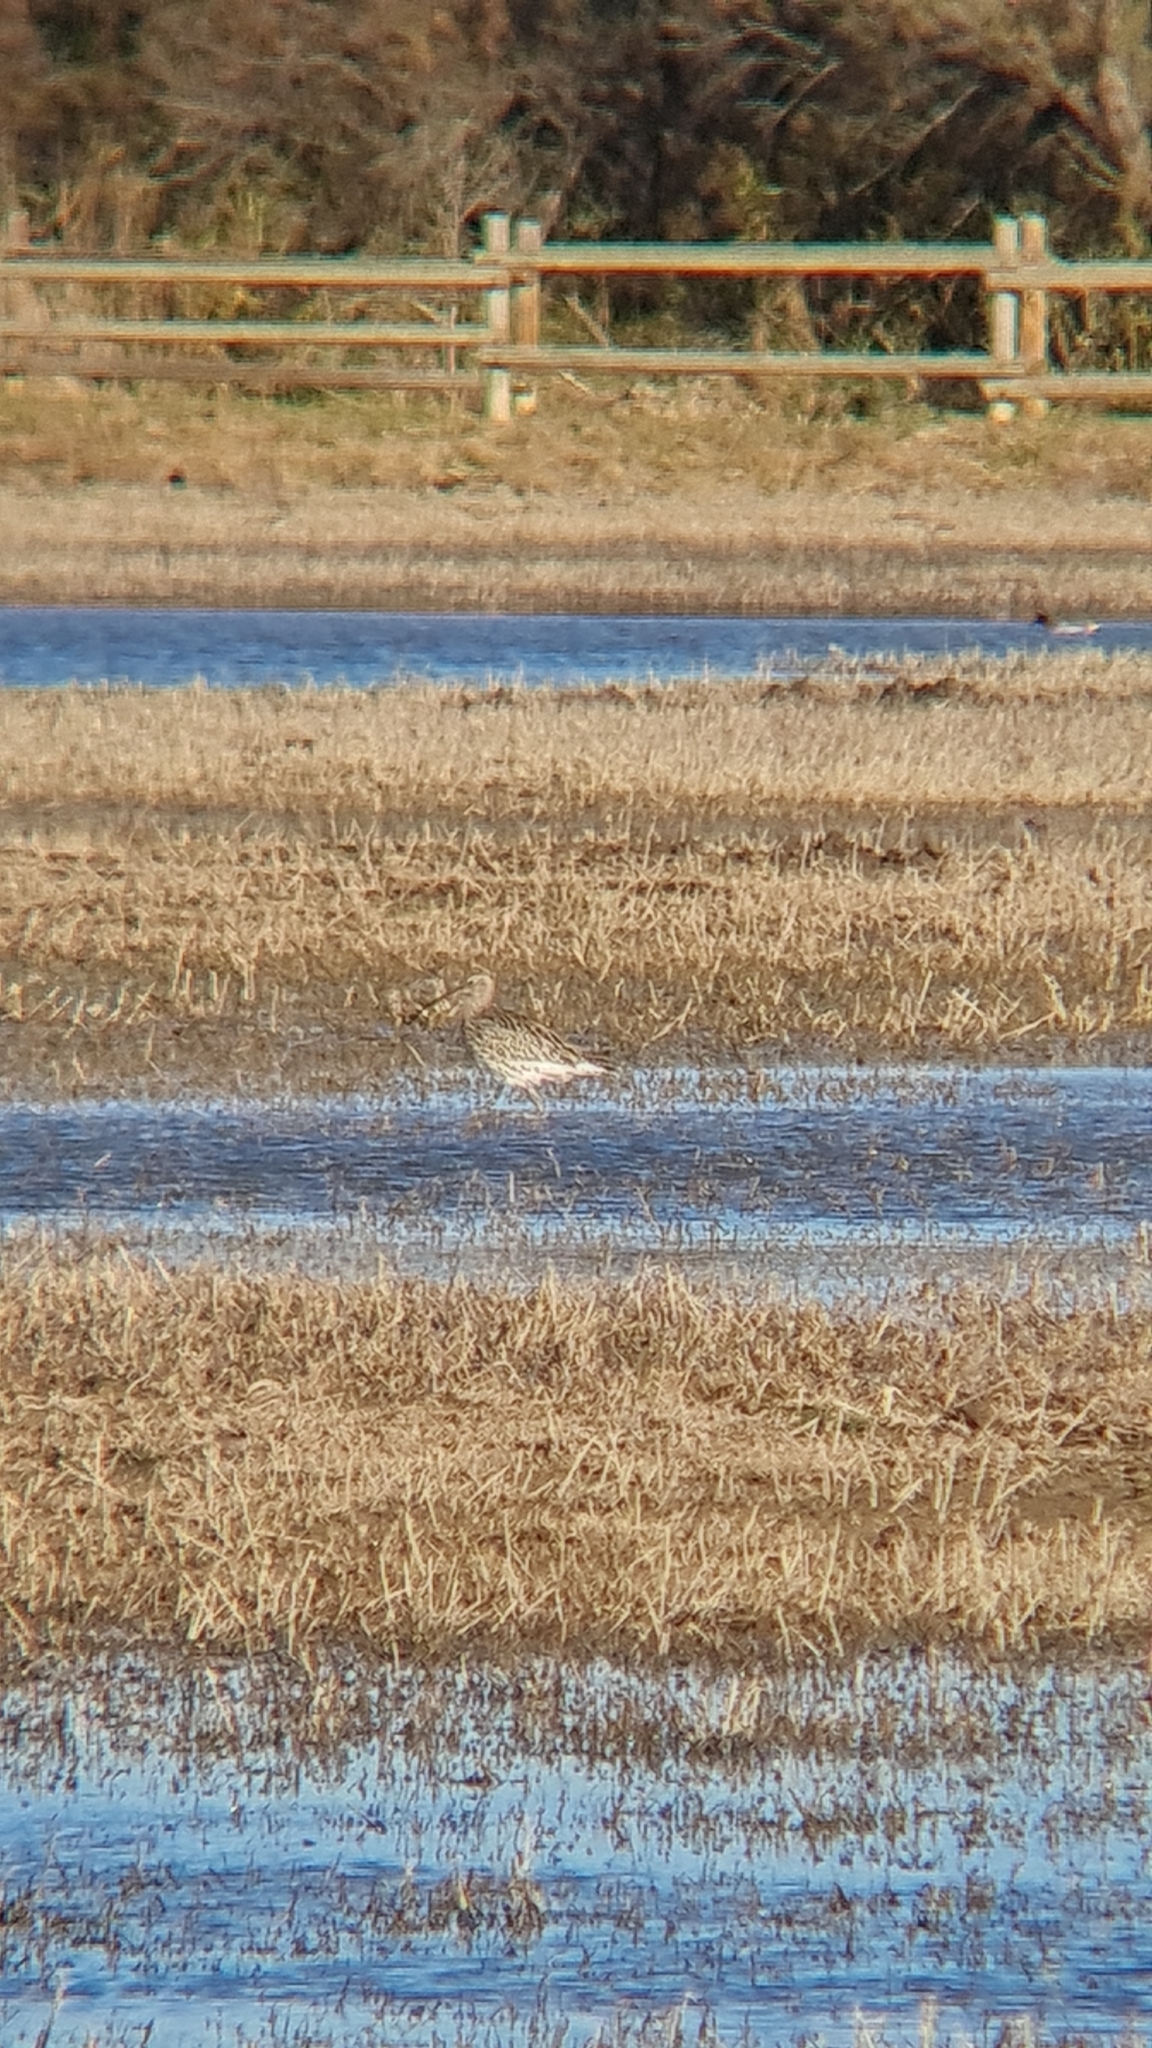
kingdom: Animalia
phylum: Chordata
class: Aves
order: Charadriiformes
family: Scolopacidae
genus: Numenius
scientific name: Numenius arquata
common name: Eurasian curlew
